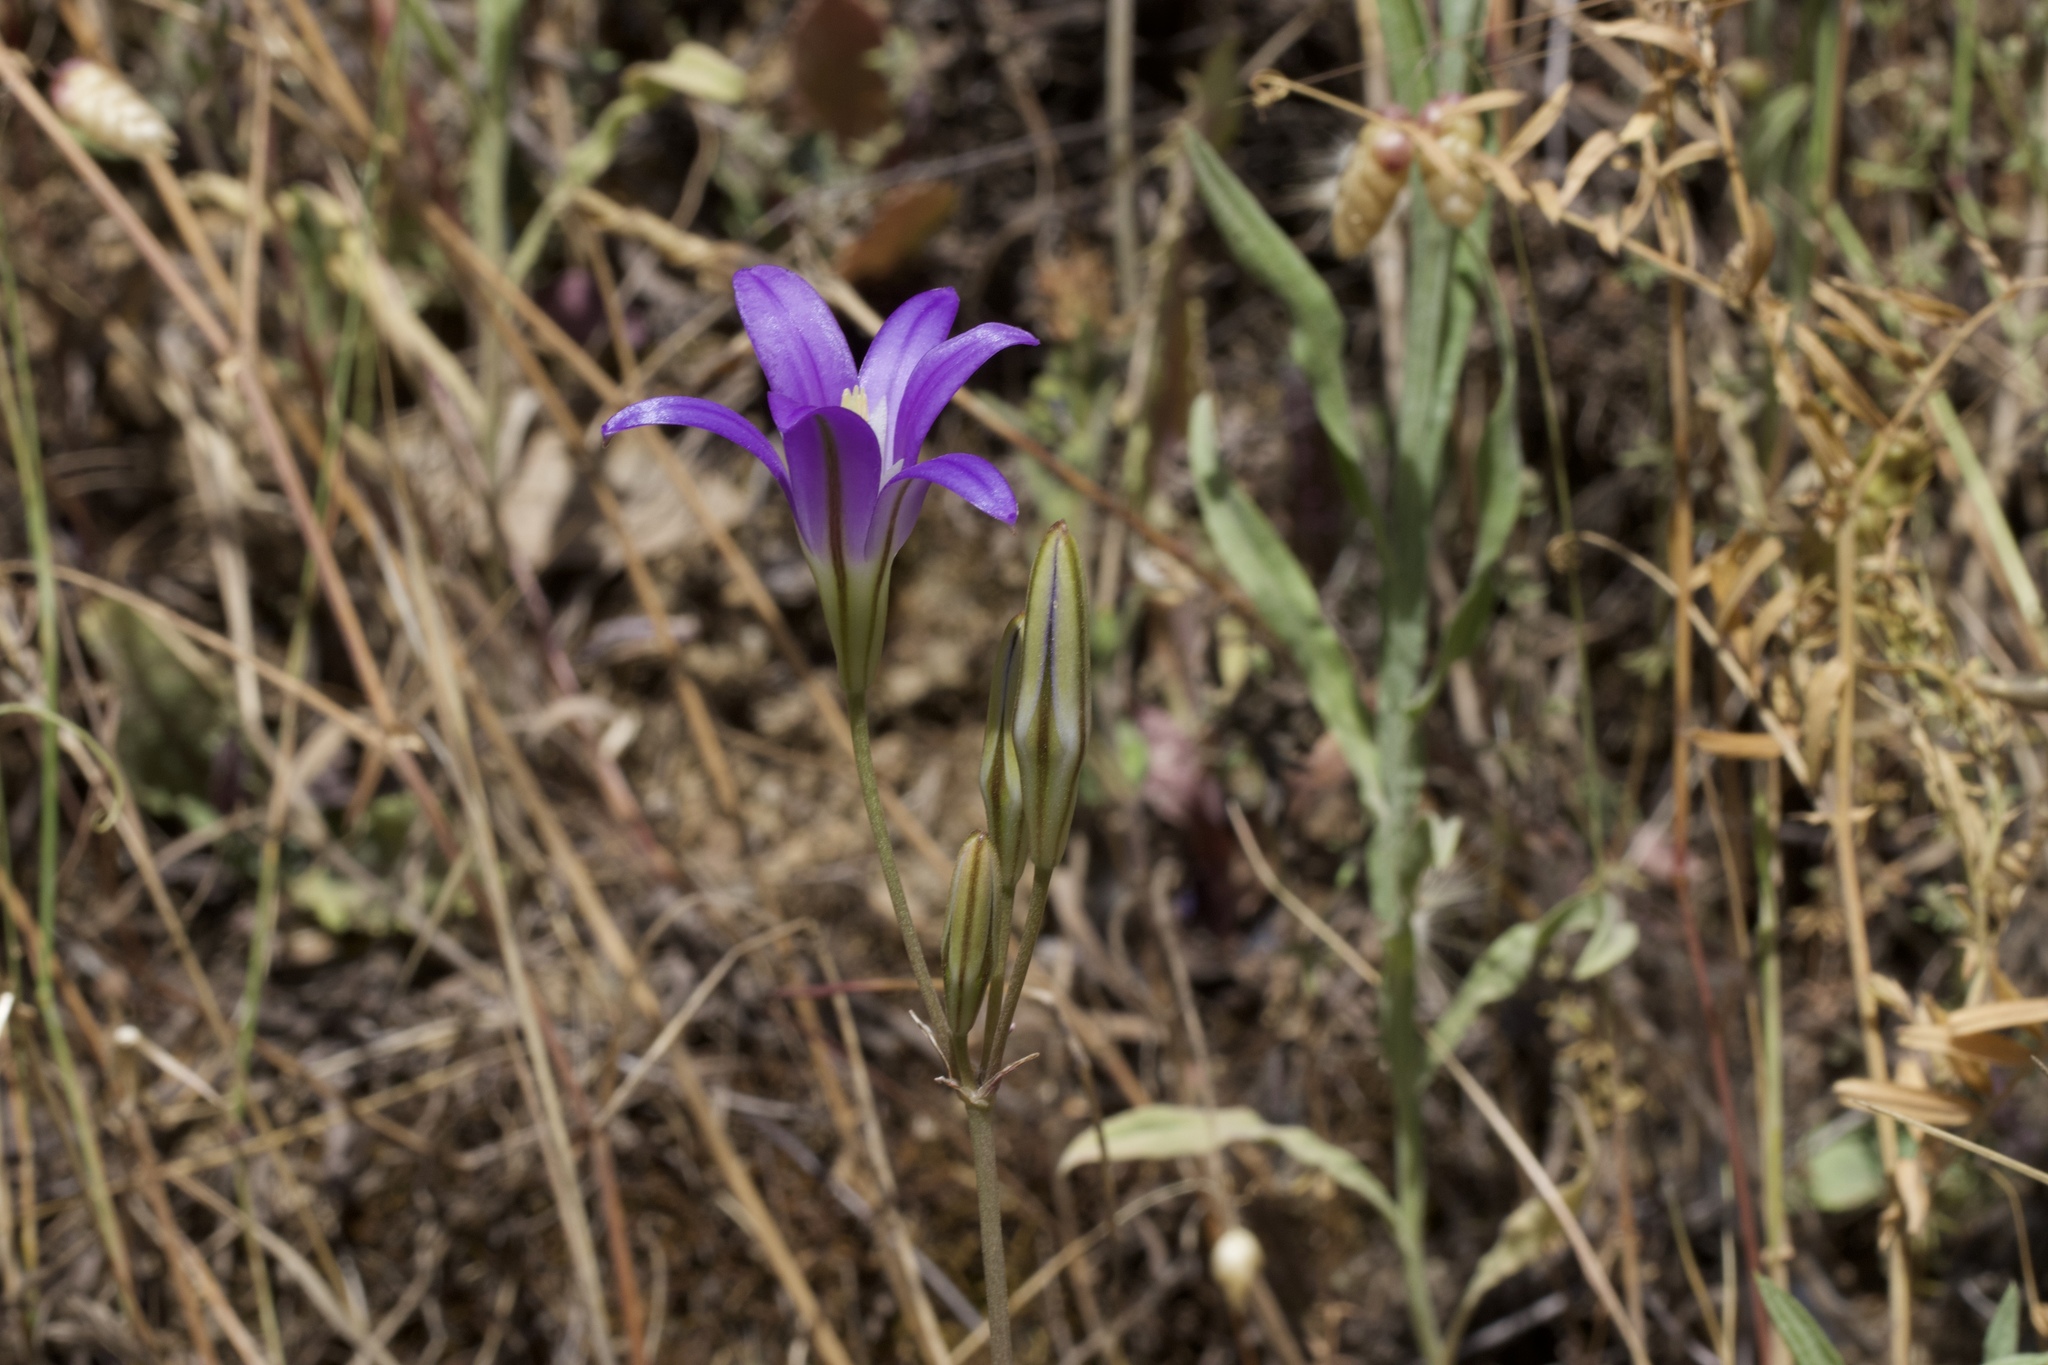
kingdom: Plantae
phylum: Tracheophyta
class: Liliopsida
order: Asparagales
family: Asparagaceae
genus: Brodiaea
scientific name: Brodiaea elegans
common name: Elegant cluster-lily
